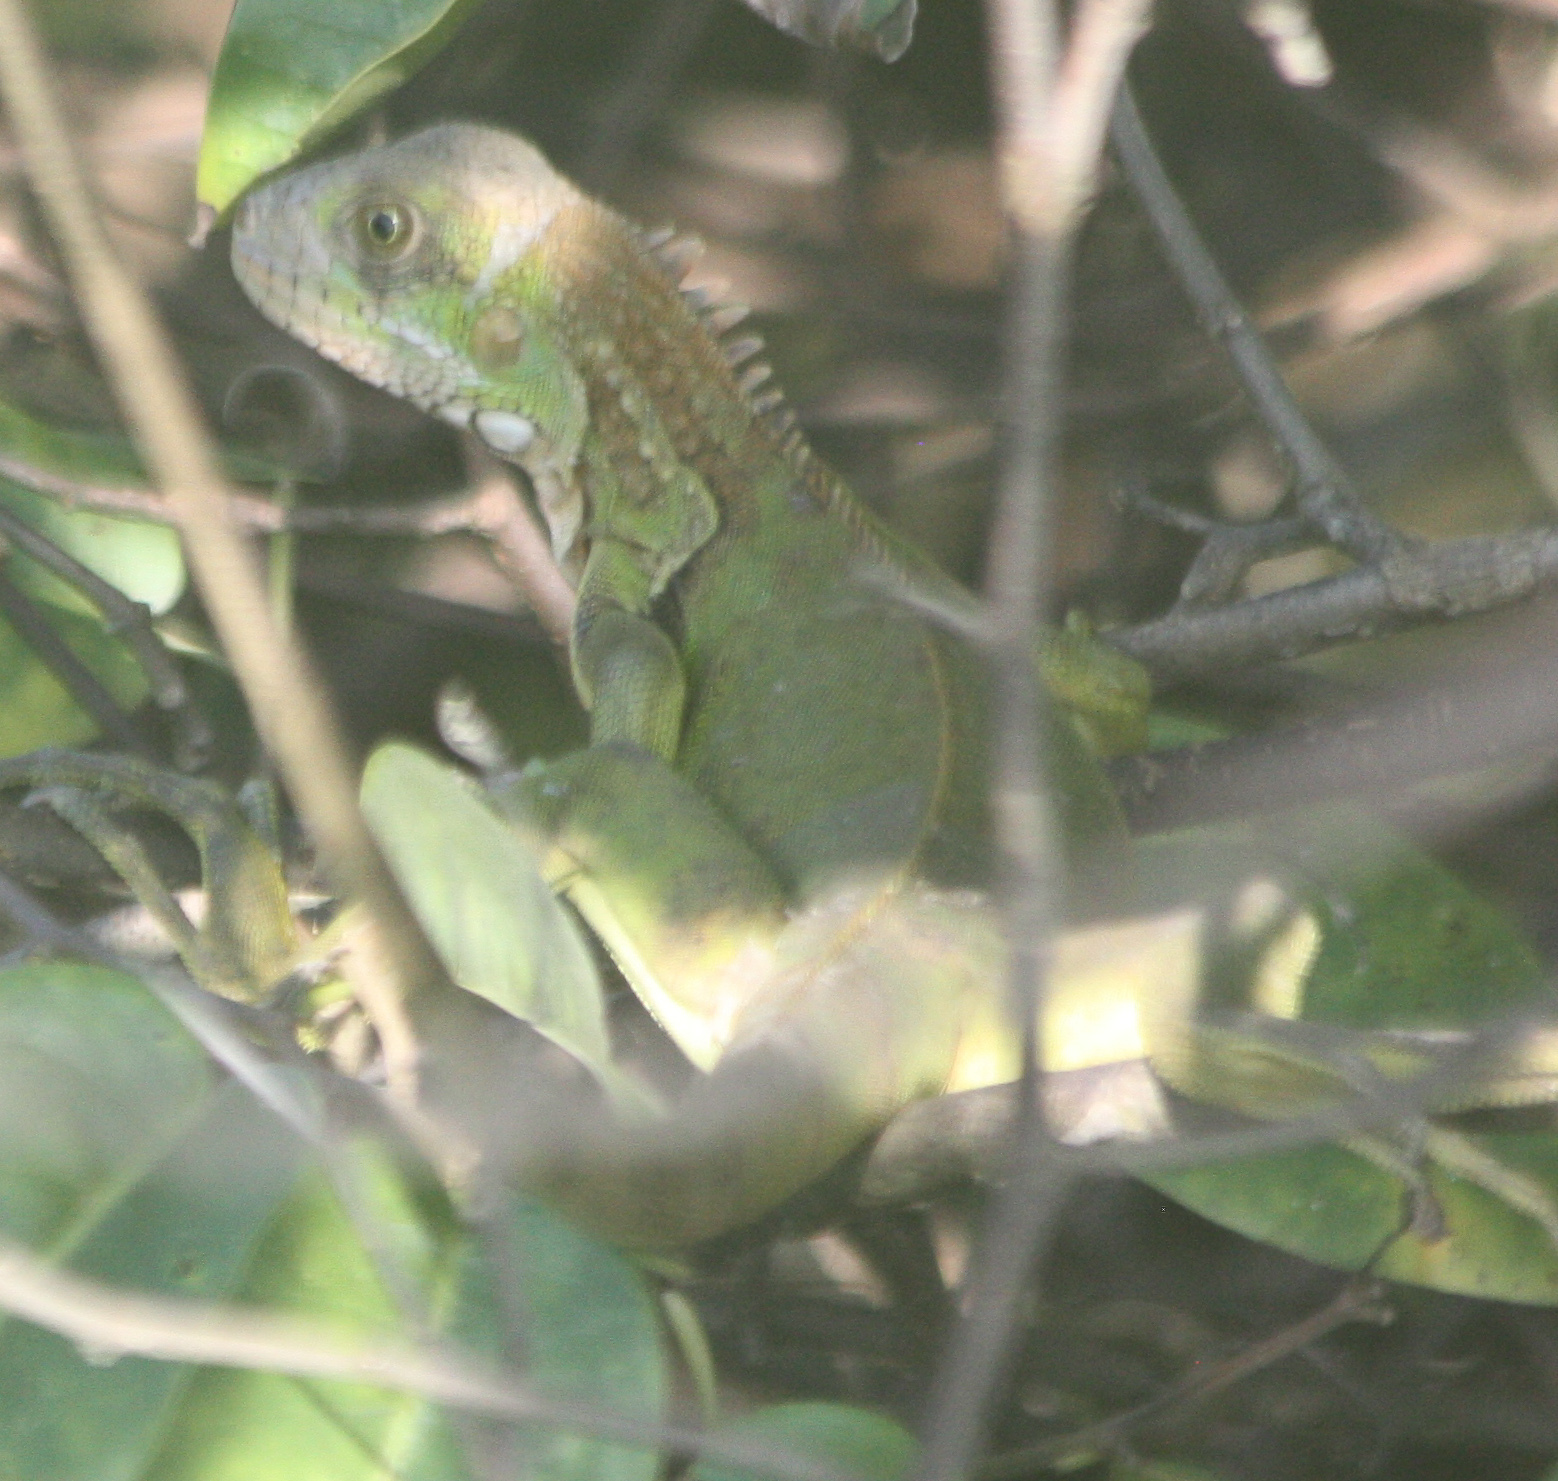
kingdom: Animalia
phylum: Chordata
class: Squamata
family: Iguanidae
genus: Iguana
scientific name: Iguana iguana
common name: Green iguana
